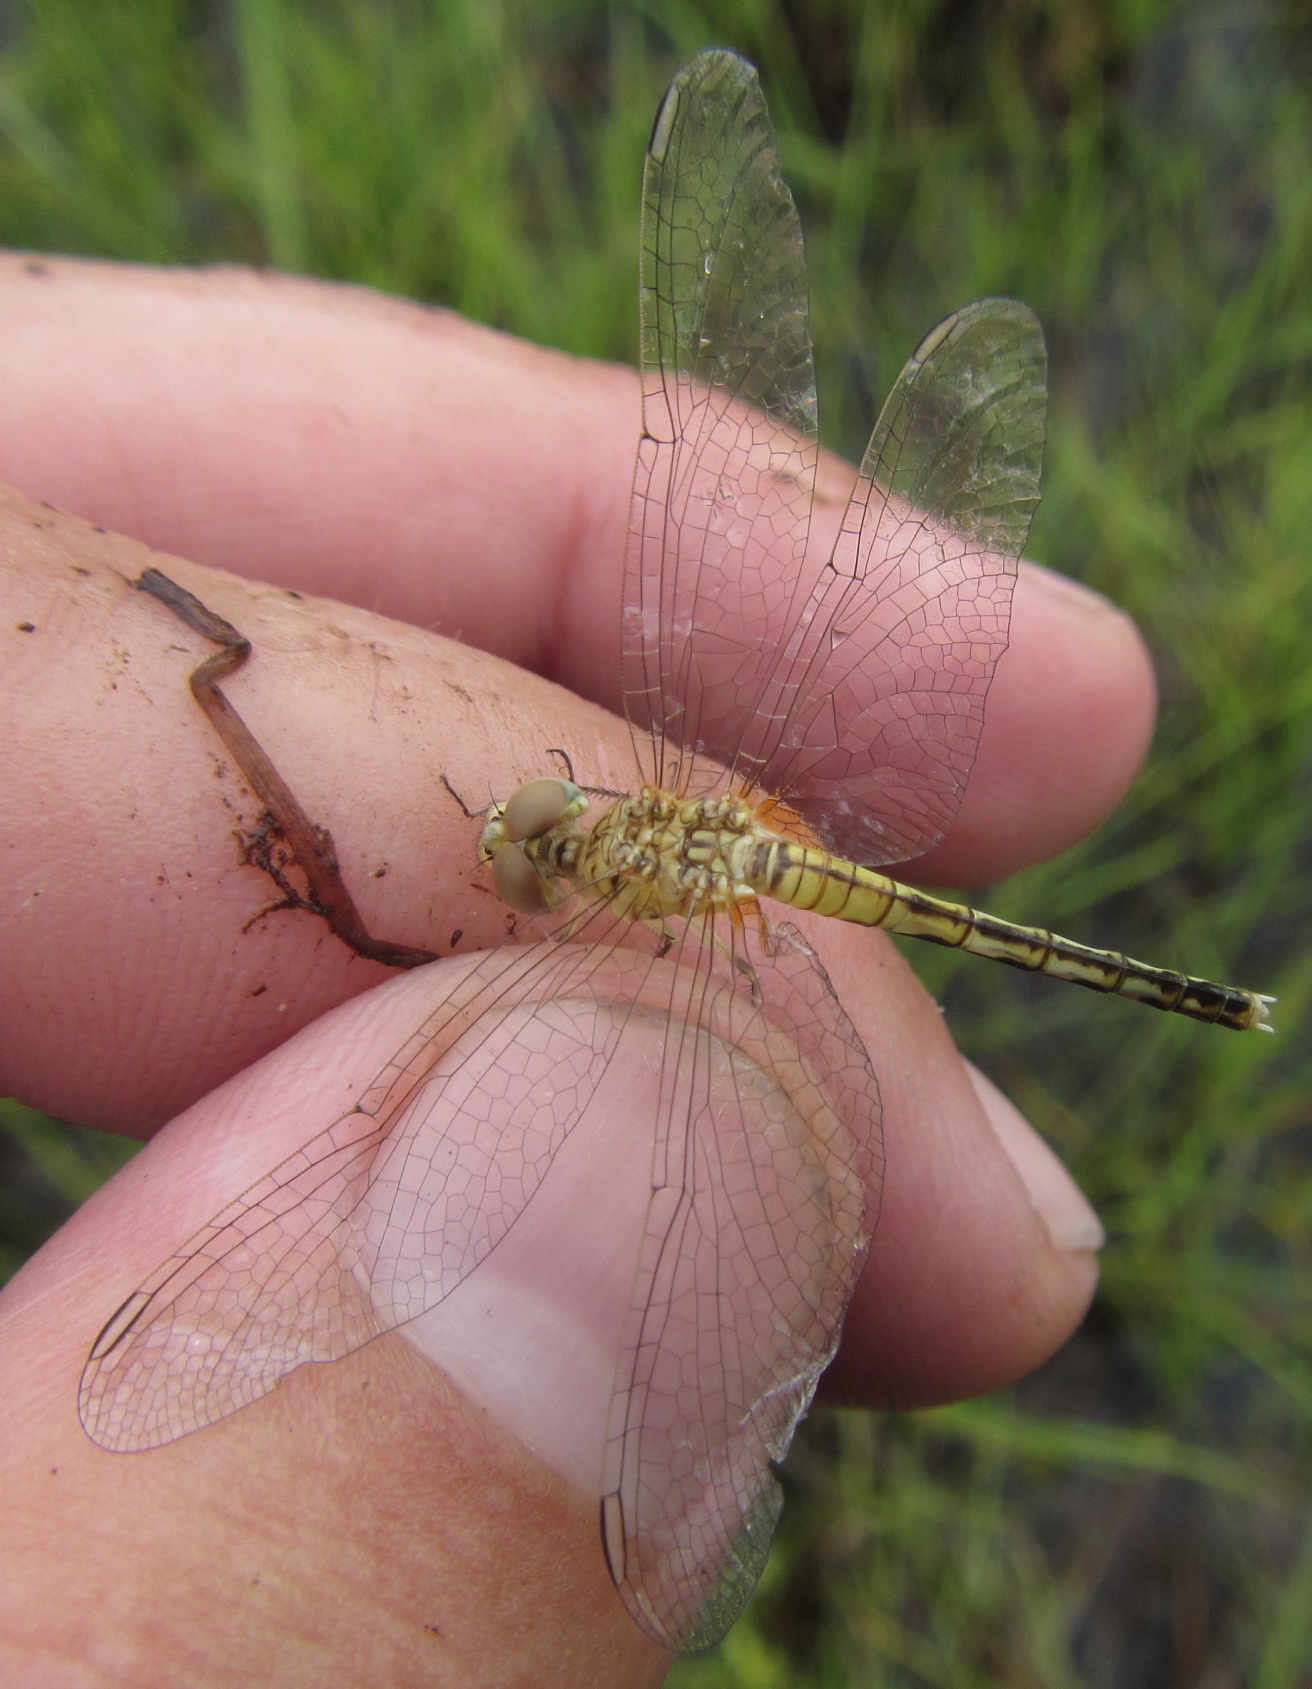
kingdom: Animalia
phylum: Arthropoda
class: Insecta
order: Odonata
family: Libellulidae
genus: Diplacodes
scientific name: Diplacodes lefebvrii
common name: Black percher
